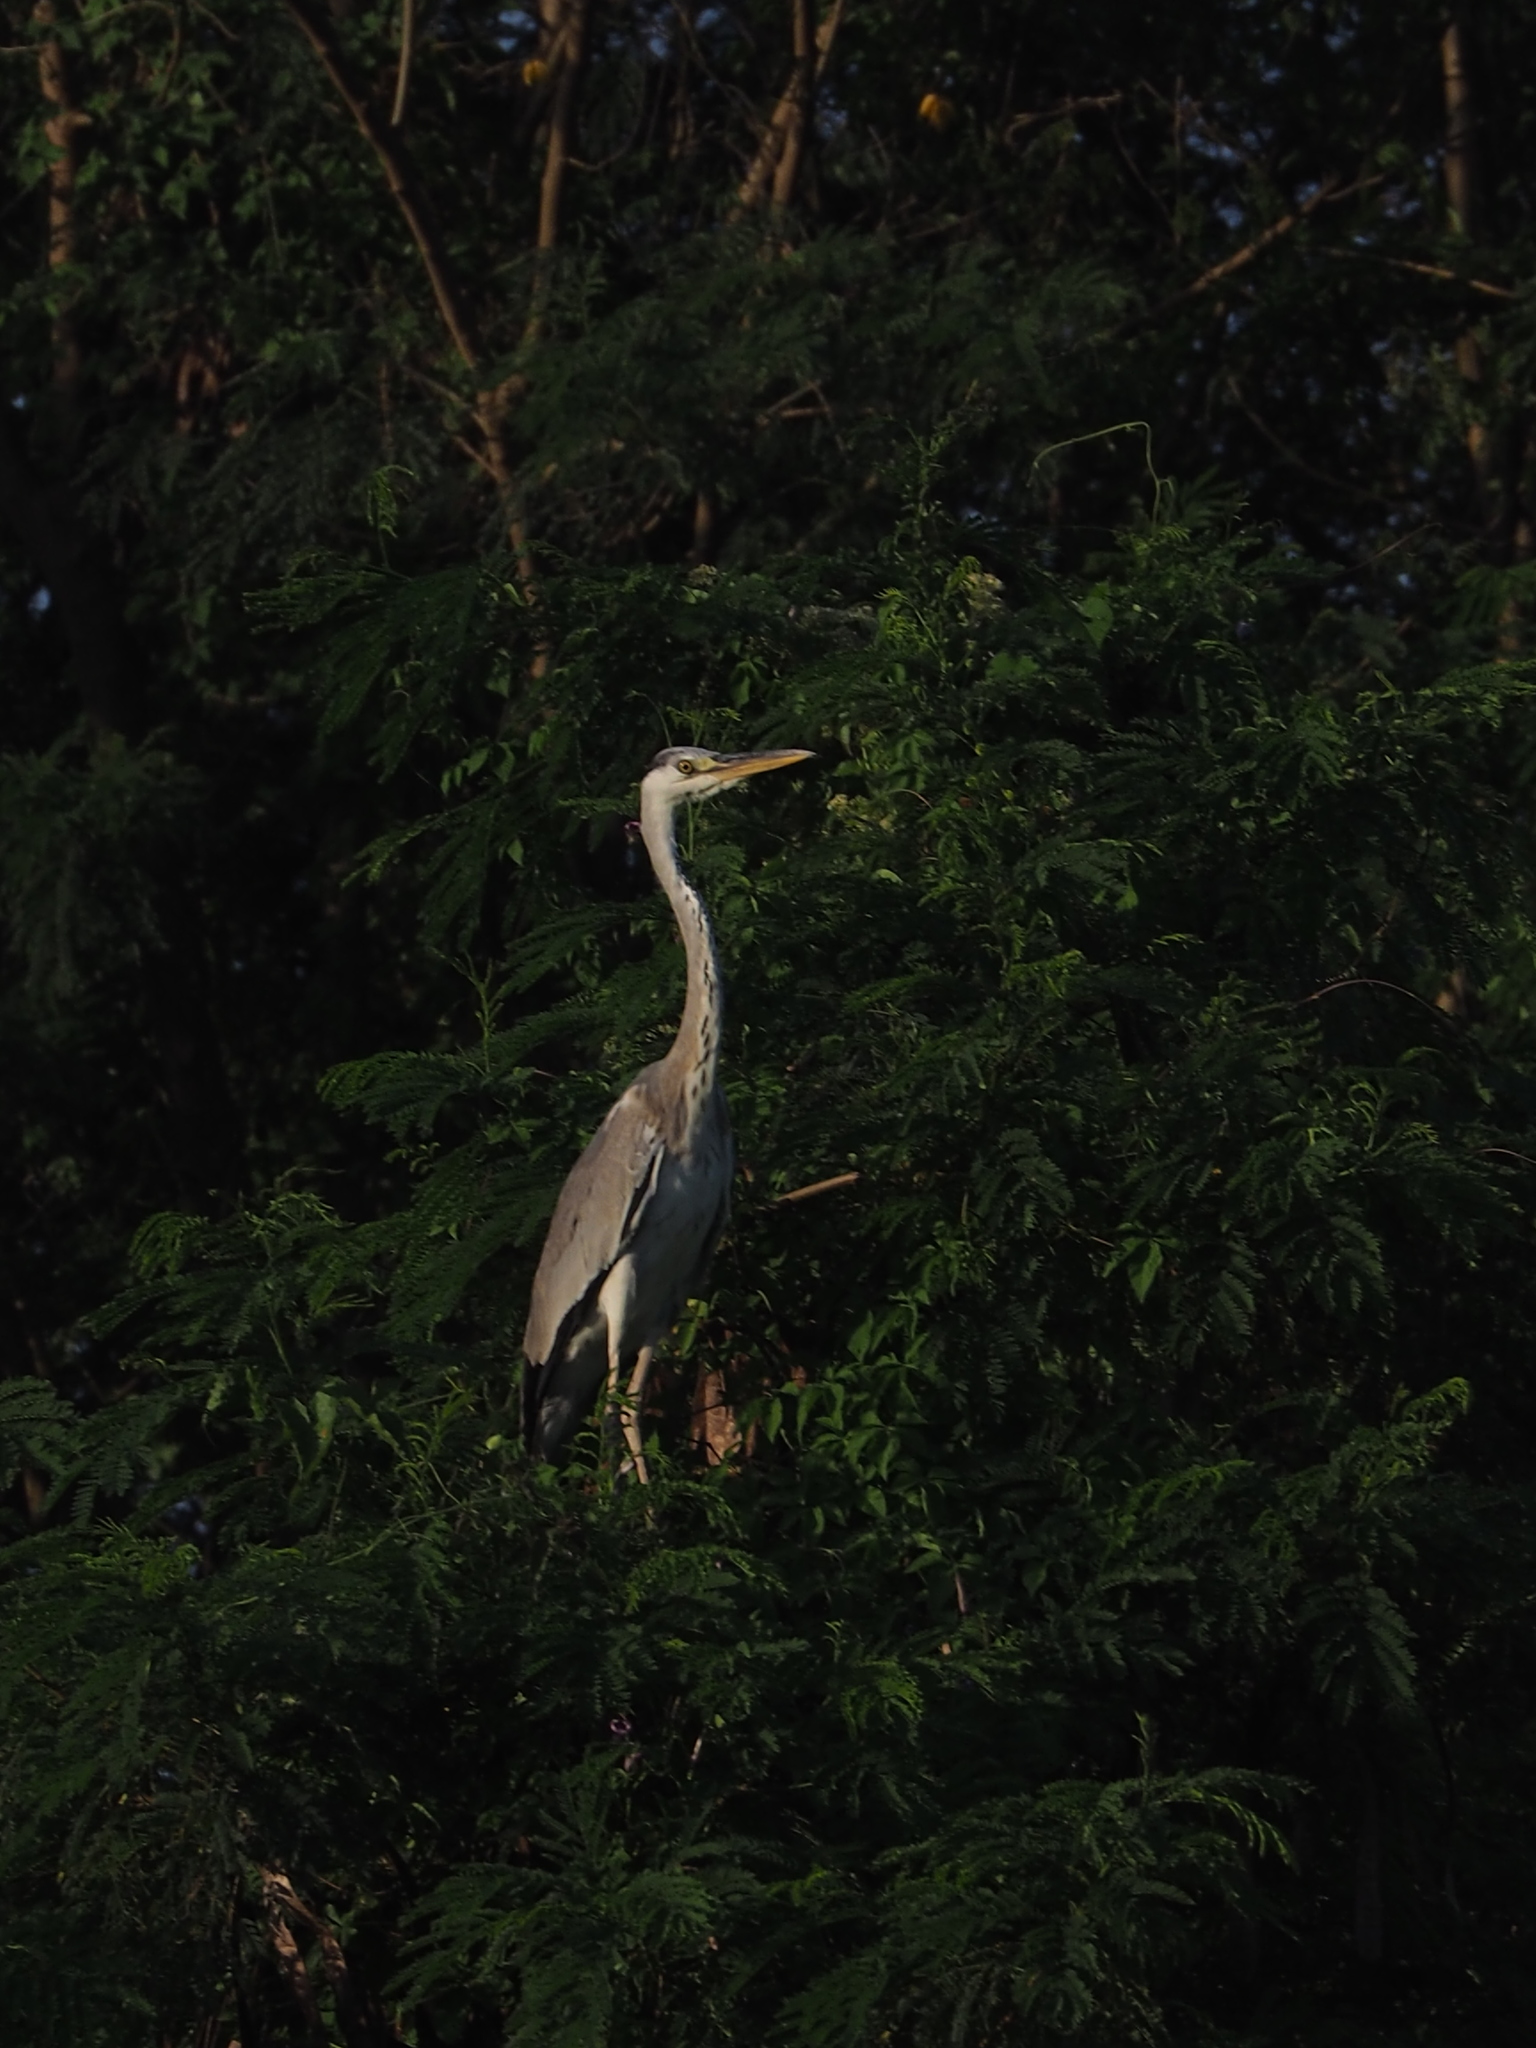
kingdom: Animalia
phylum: Chordata
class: Aves
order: Pelecaniformes
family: Ardeidae
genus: Ardea
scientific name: Ardea cinerea
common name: Grey heron
